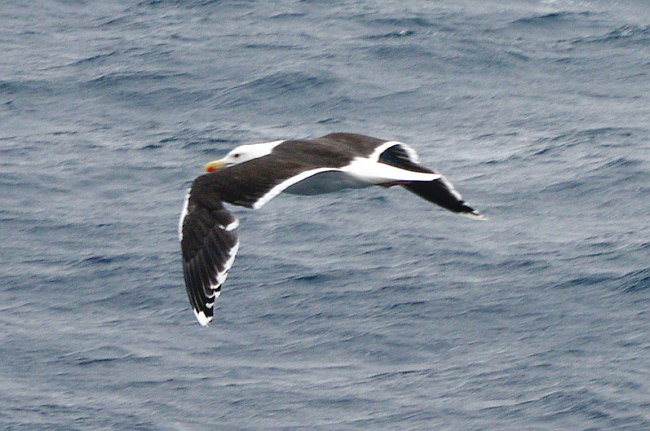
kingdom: Animalia
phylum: Chordata
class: Aves
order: Charadriiformes
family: Laridae
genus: Larus
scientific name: Larus marinus
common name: Great black-backed gull
